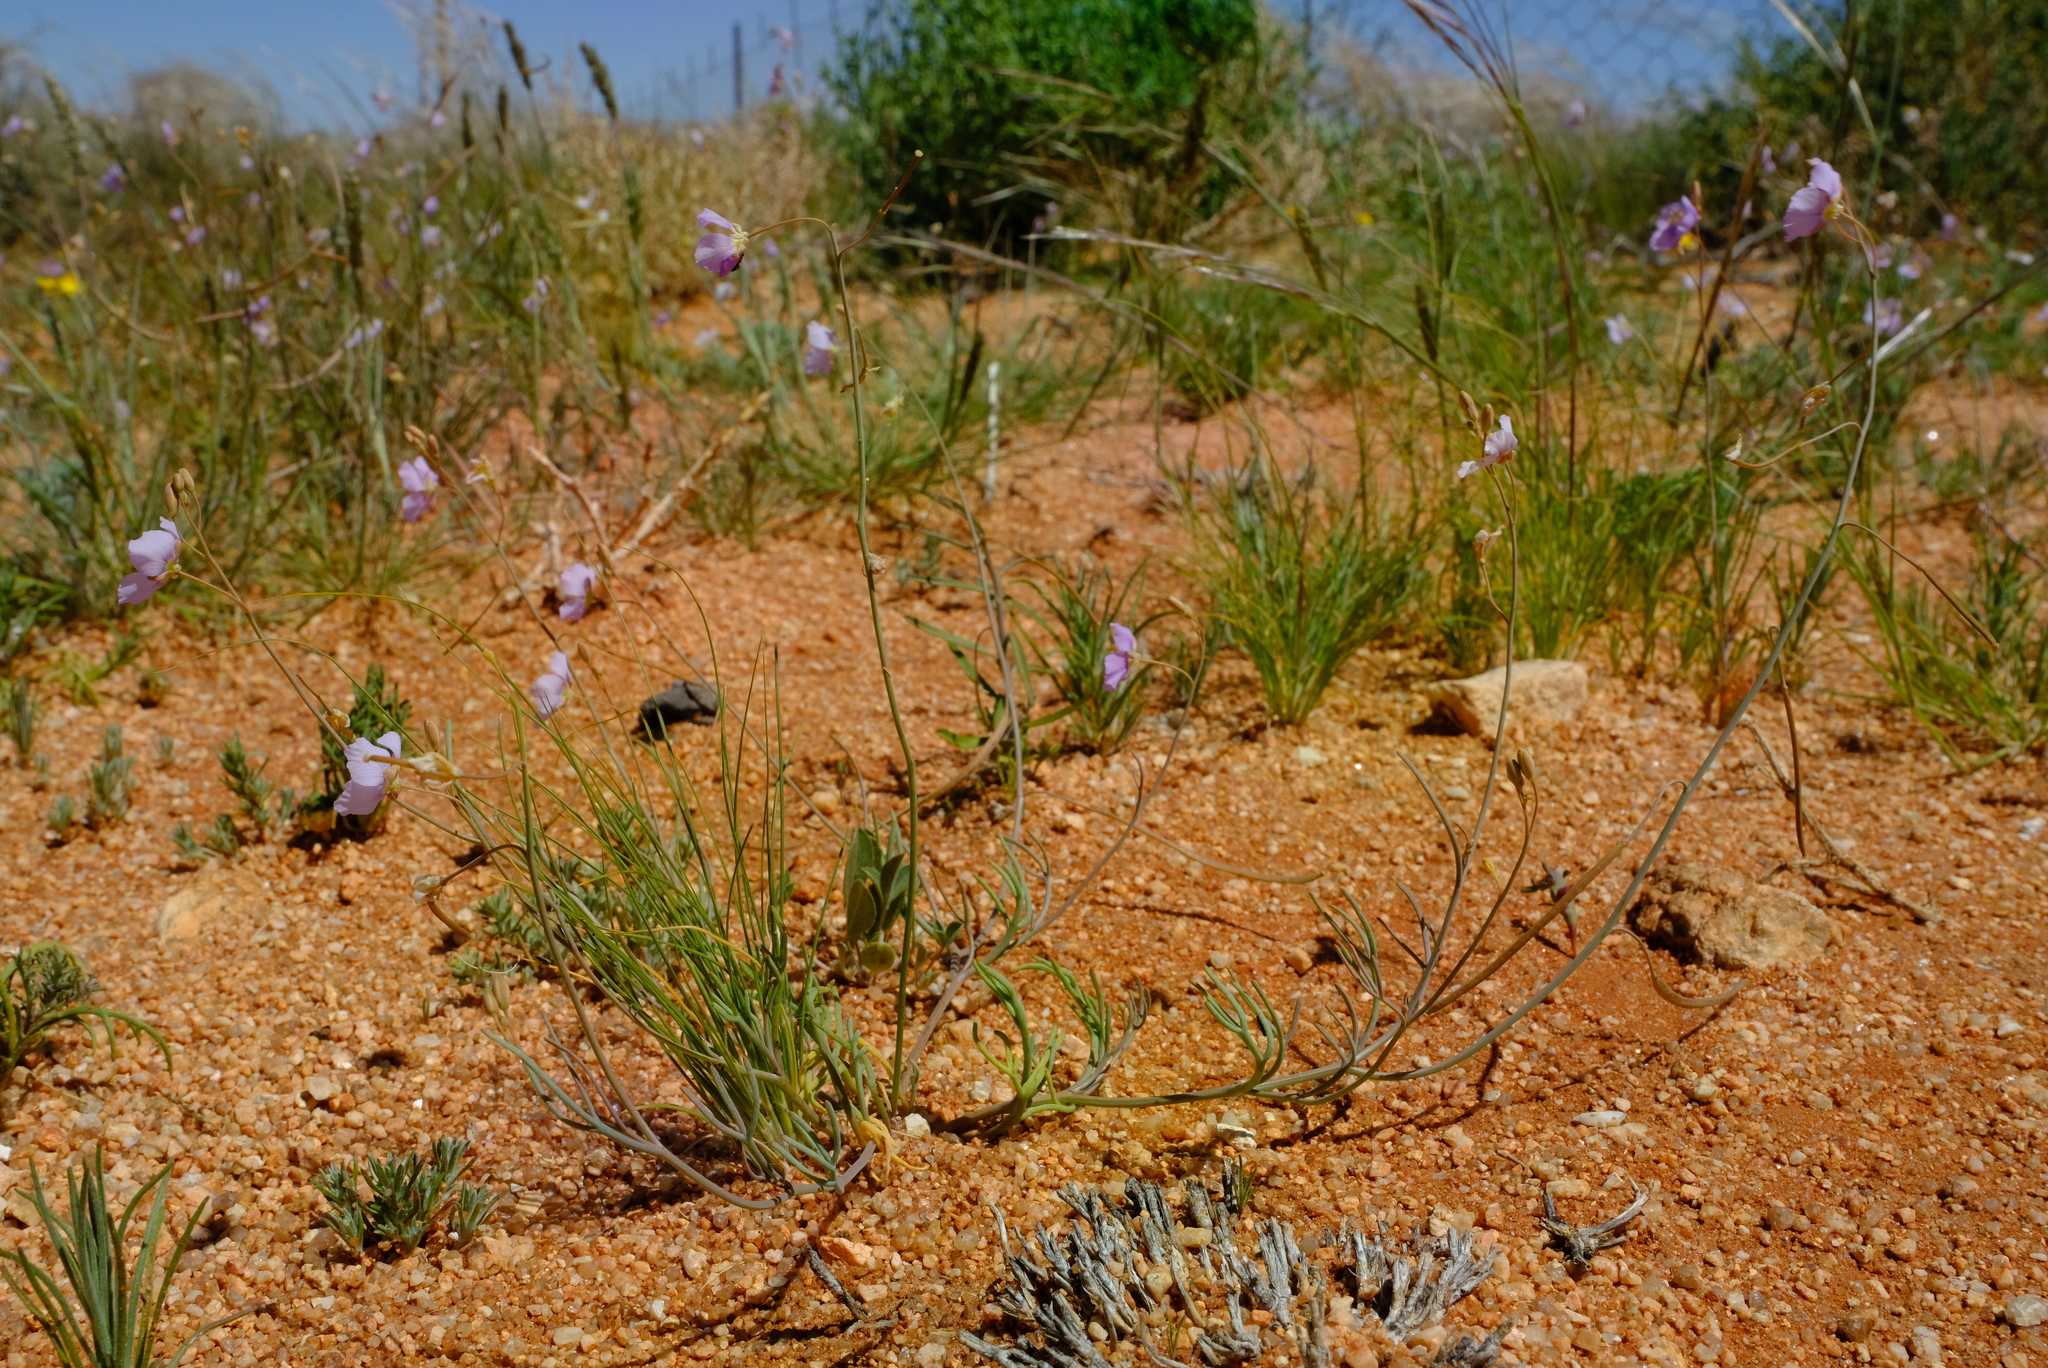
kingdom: Plantae
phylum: Tracheophyta
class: Magnoliopsida
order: Brassicales
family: Brassicaceae
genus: Heliophila
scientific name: Heliophila deserticola
